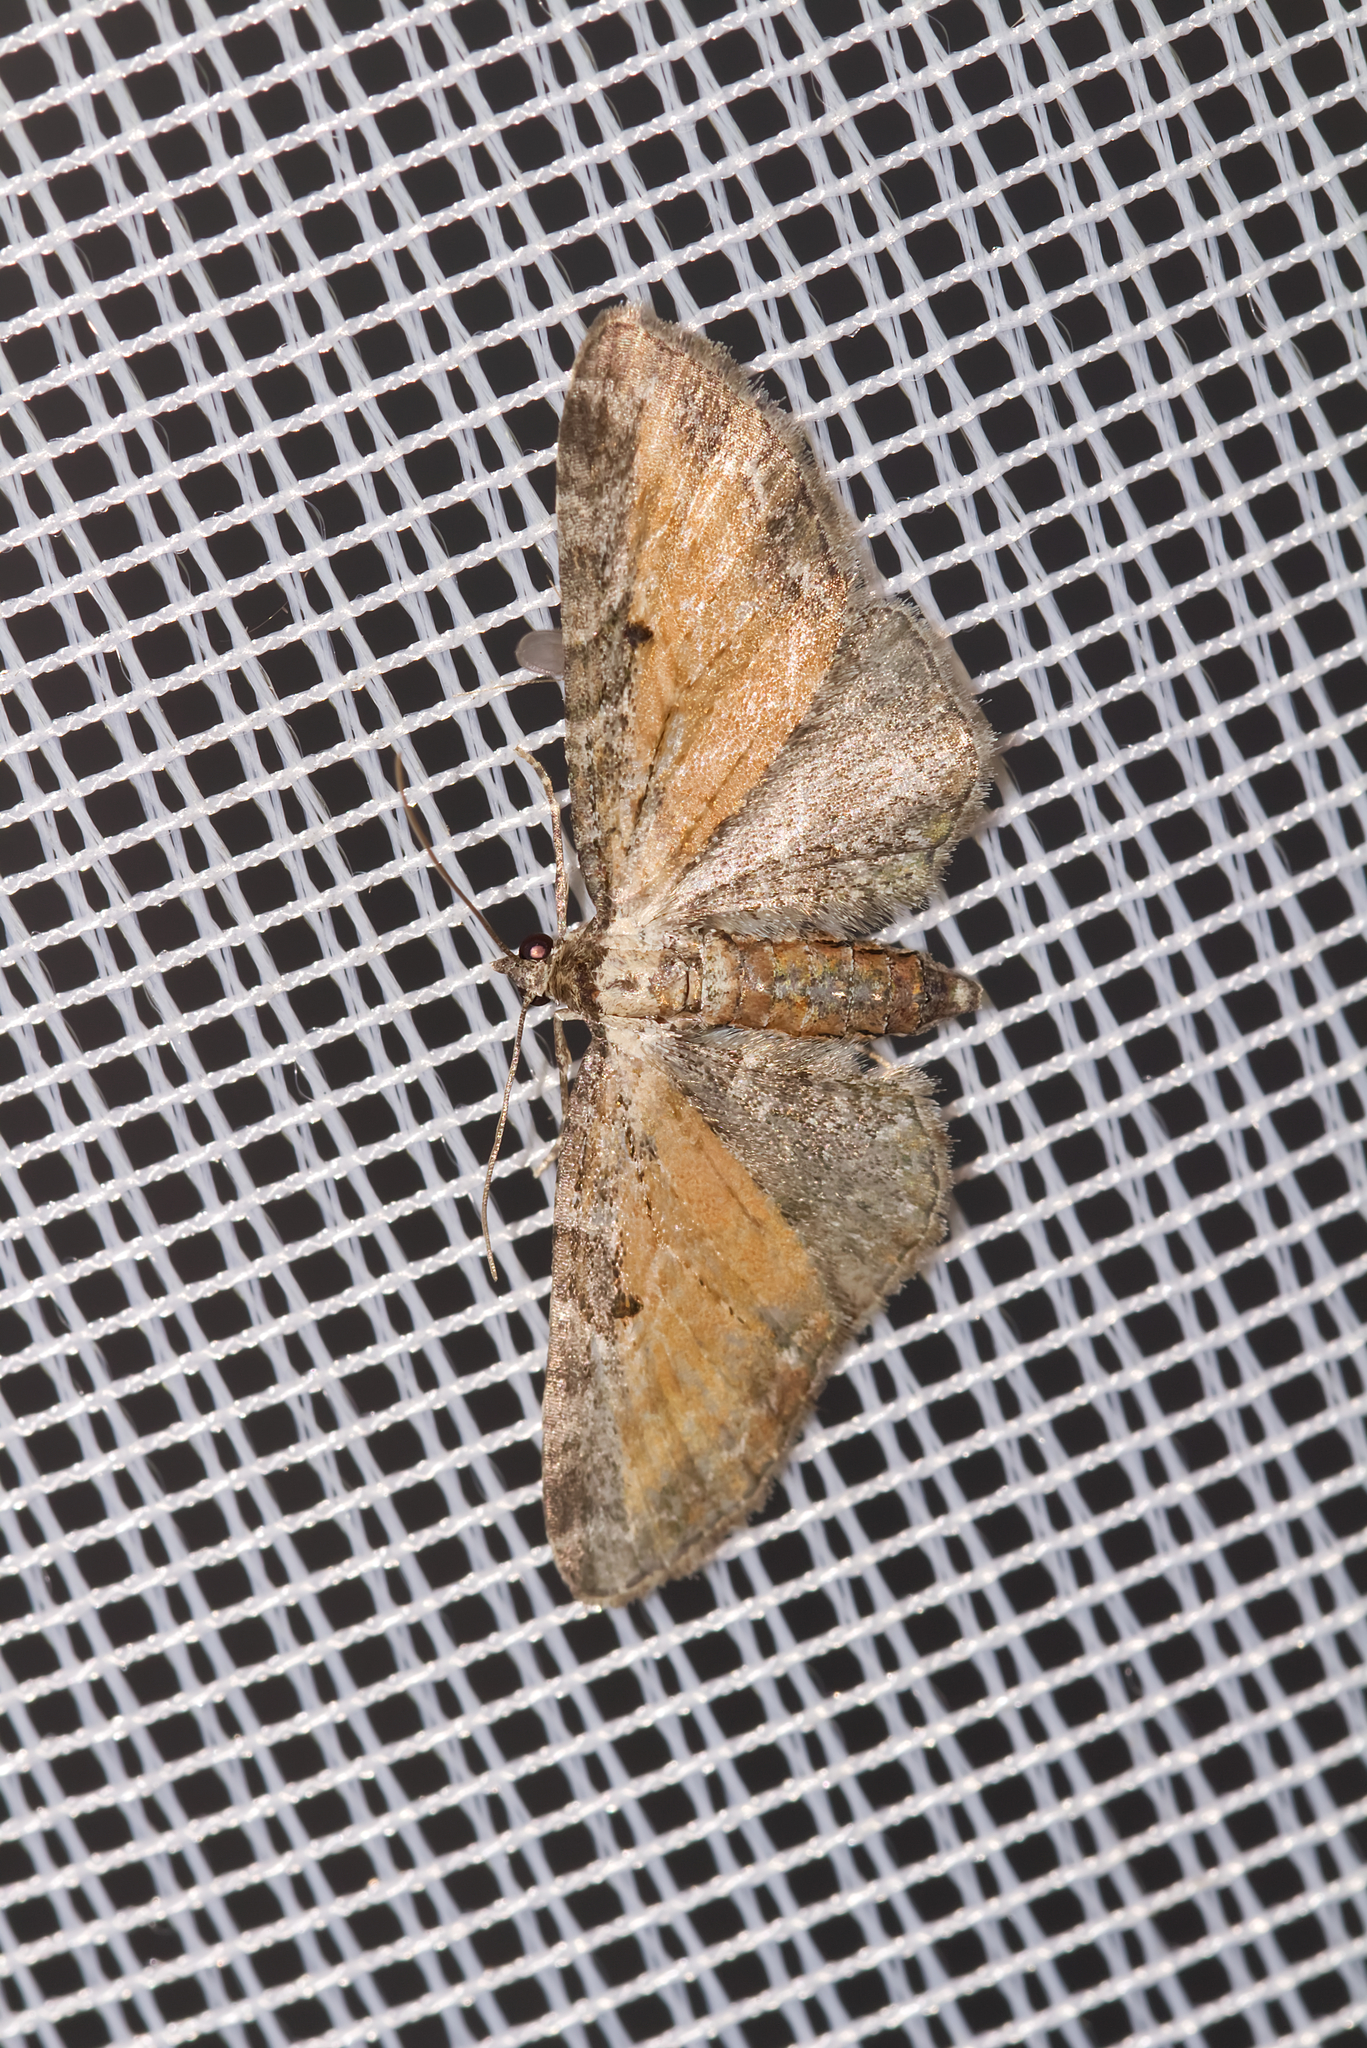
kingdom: Animalia
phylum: Arthropoda
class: Insecta
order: Lepidoptera
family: Geometridae
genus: Eupithecia
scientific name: Eupithecia icterata
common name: Tawny speckled pug
